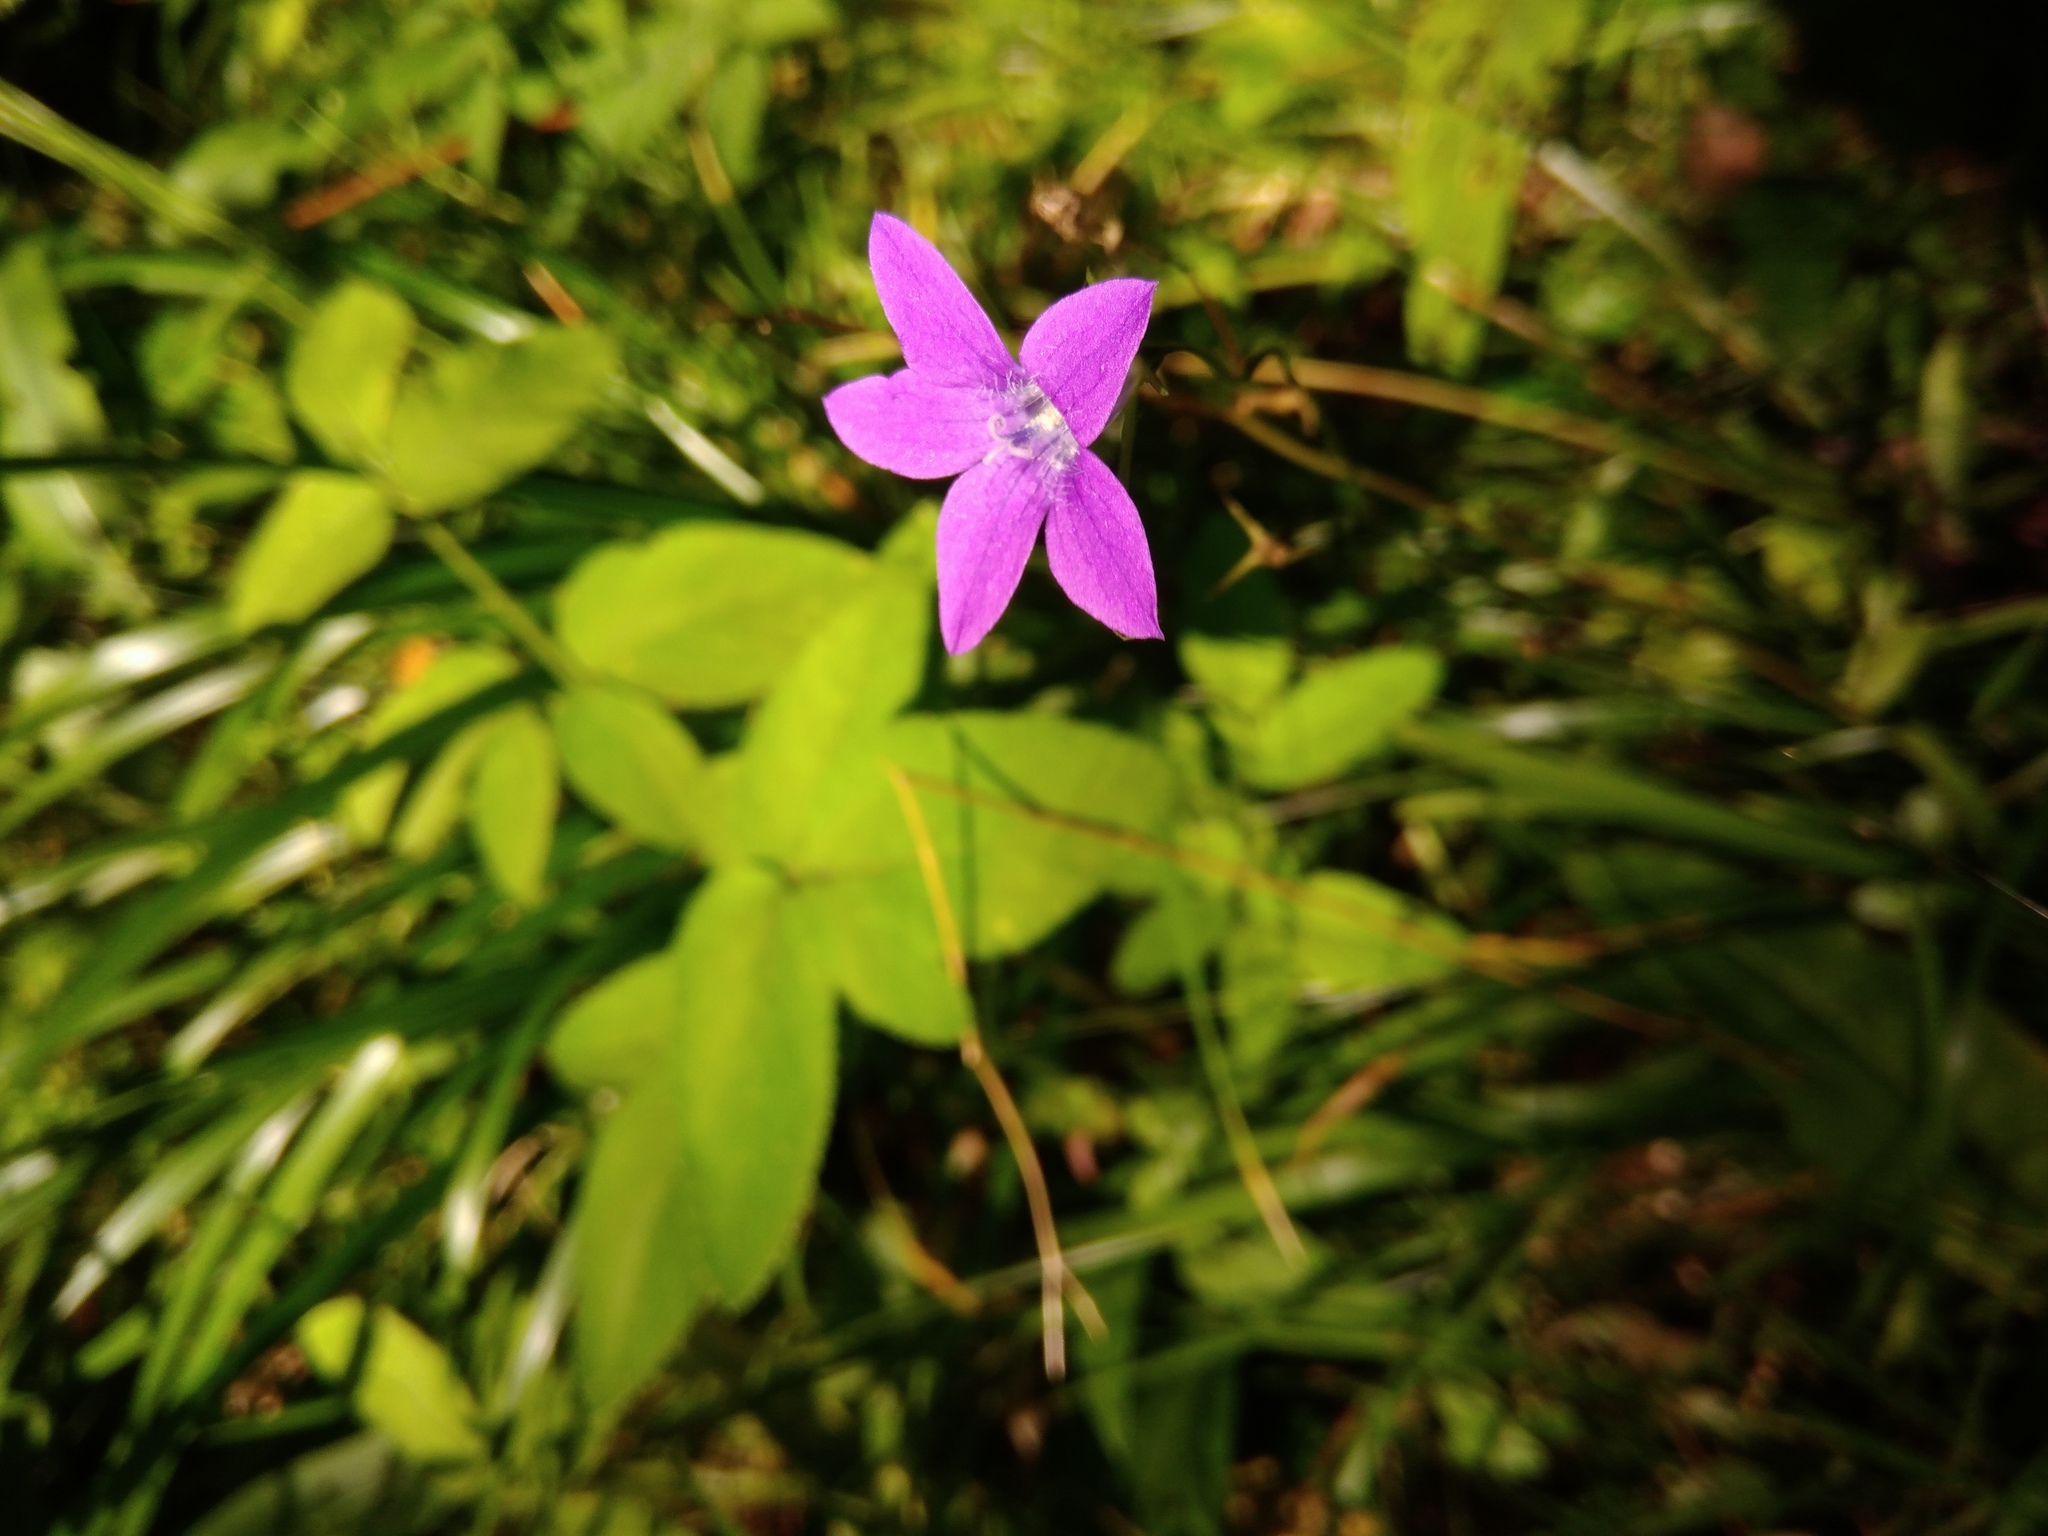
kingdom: Plantae
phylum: Tracheophyta
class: Magnoliopsida
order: Asterales
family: Campanulaceae
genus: Campanula
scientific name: Campanula patula
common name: Spreading bellflower
